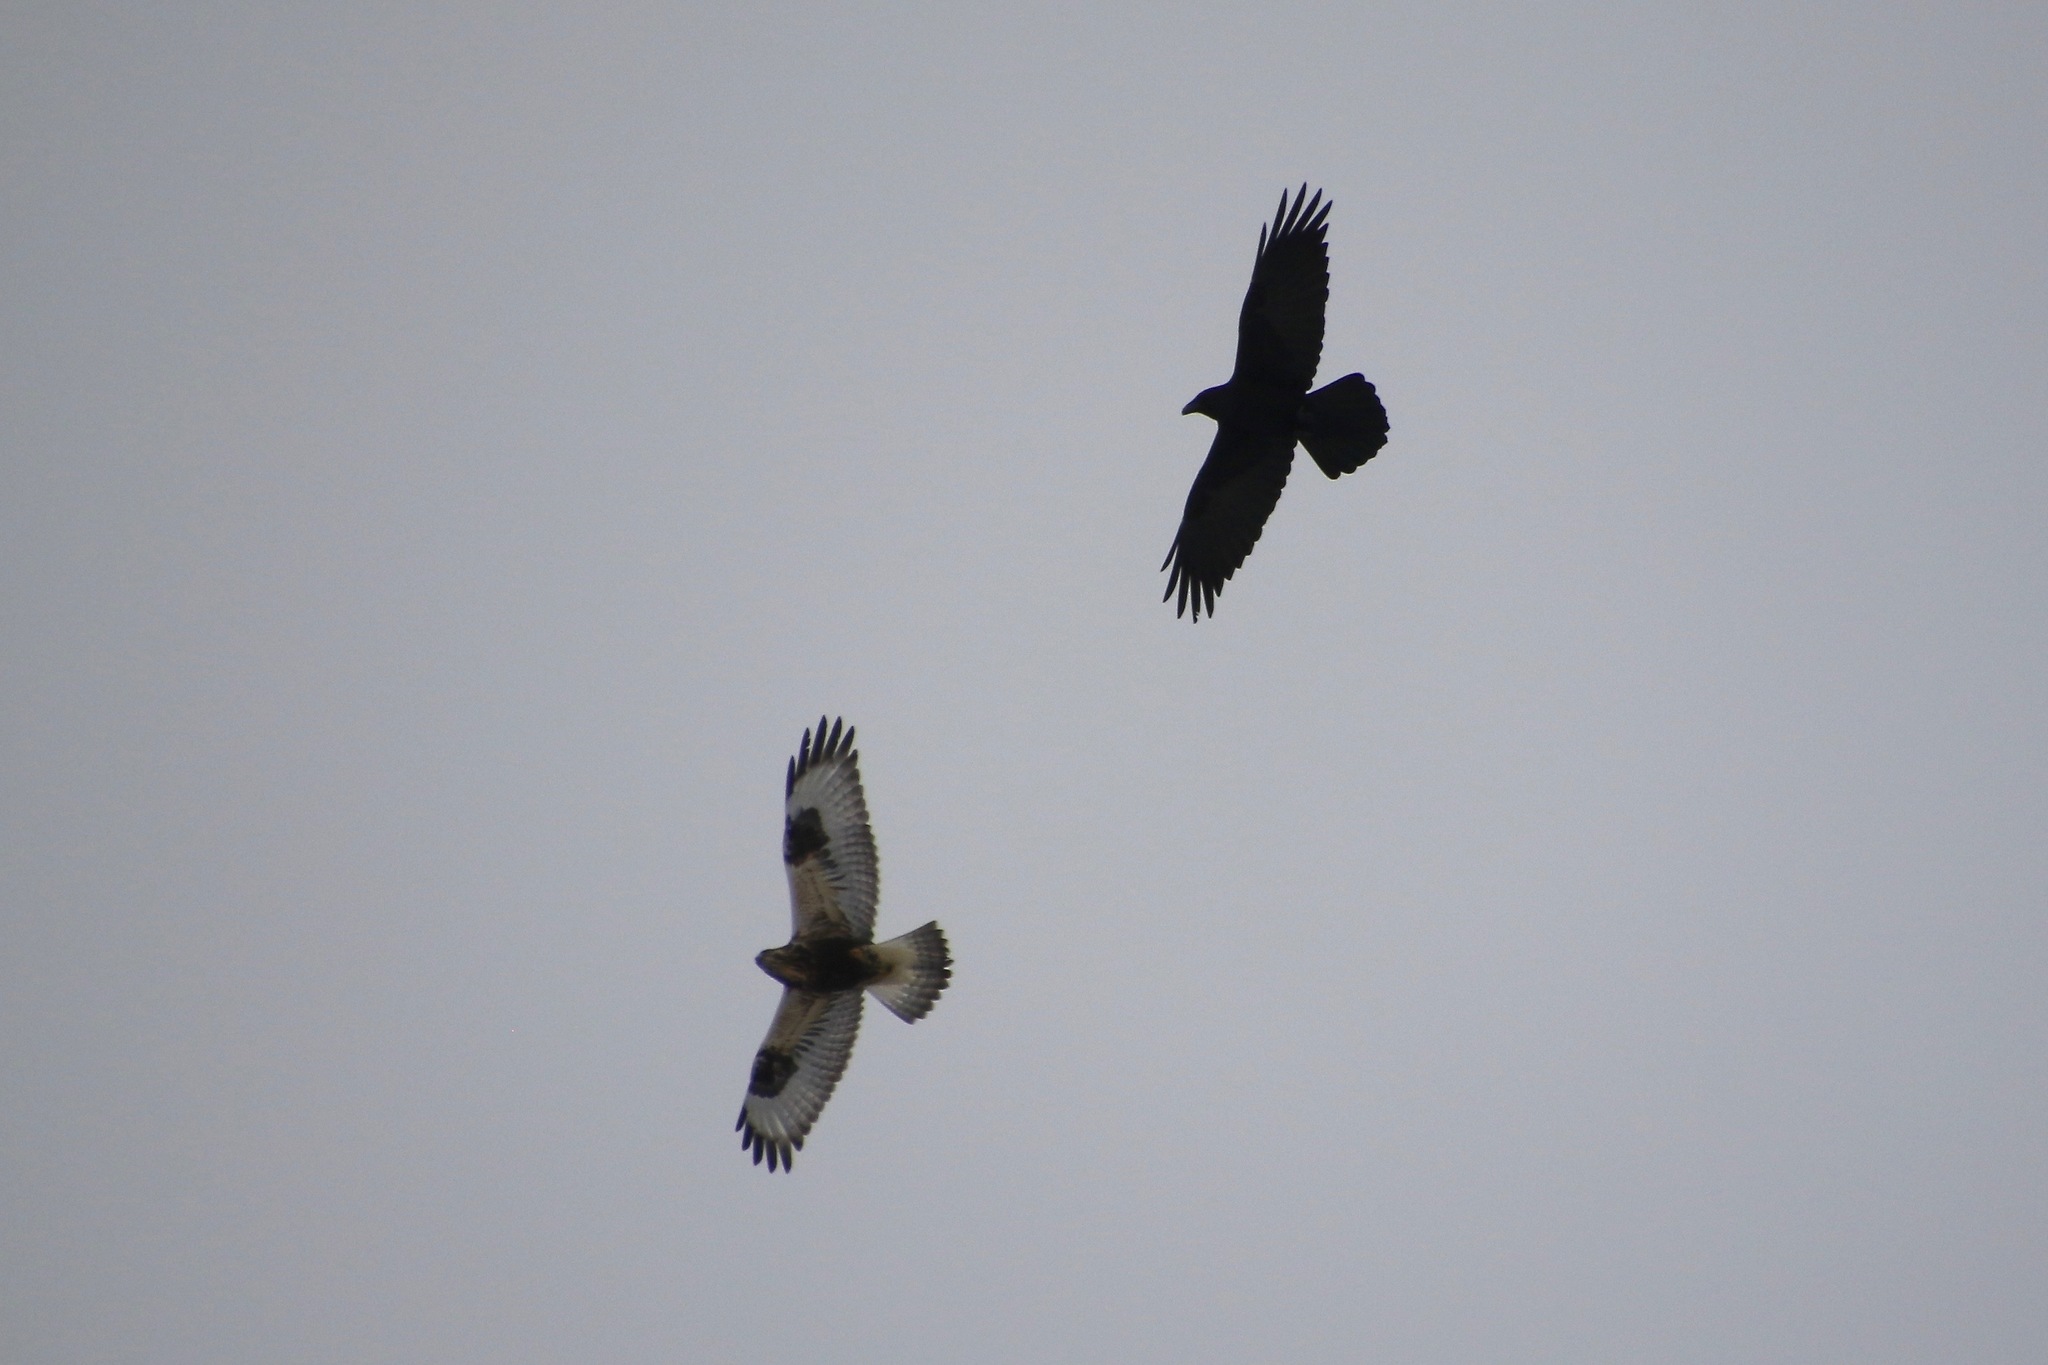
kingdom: Animalia
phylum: Chordata
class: Aves
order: Accipitriformes
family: Accipitridae
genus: Buteo
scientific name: Buteo lagopus
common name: Rough-legged buzzard
